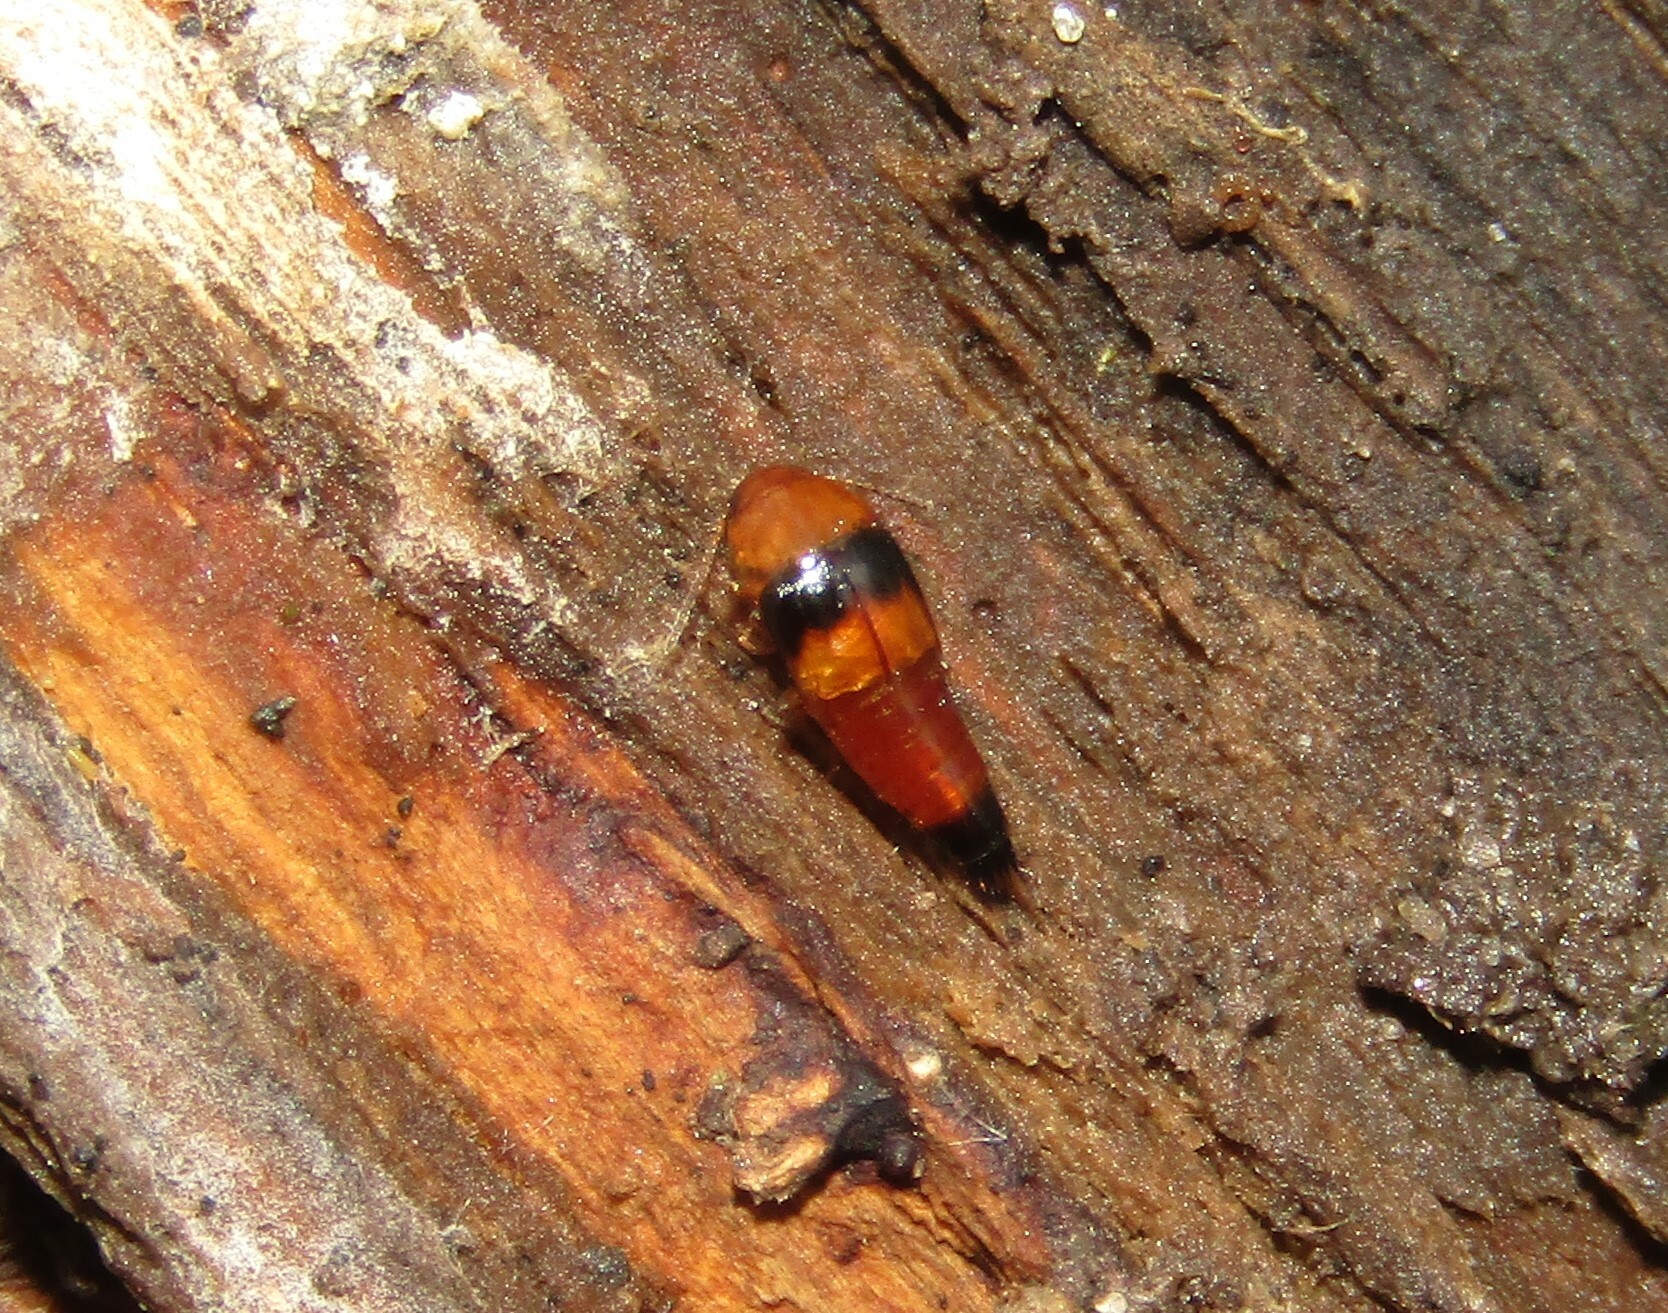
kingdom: Animalia
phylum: Arthropoda
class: Insecta
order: Coleoptera
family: Staphylinidae
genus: Tachyporus
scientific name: Tachyporus obtusus
